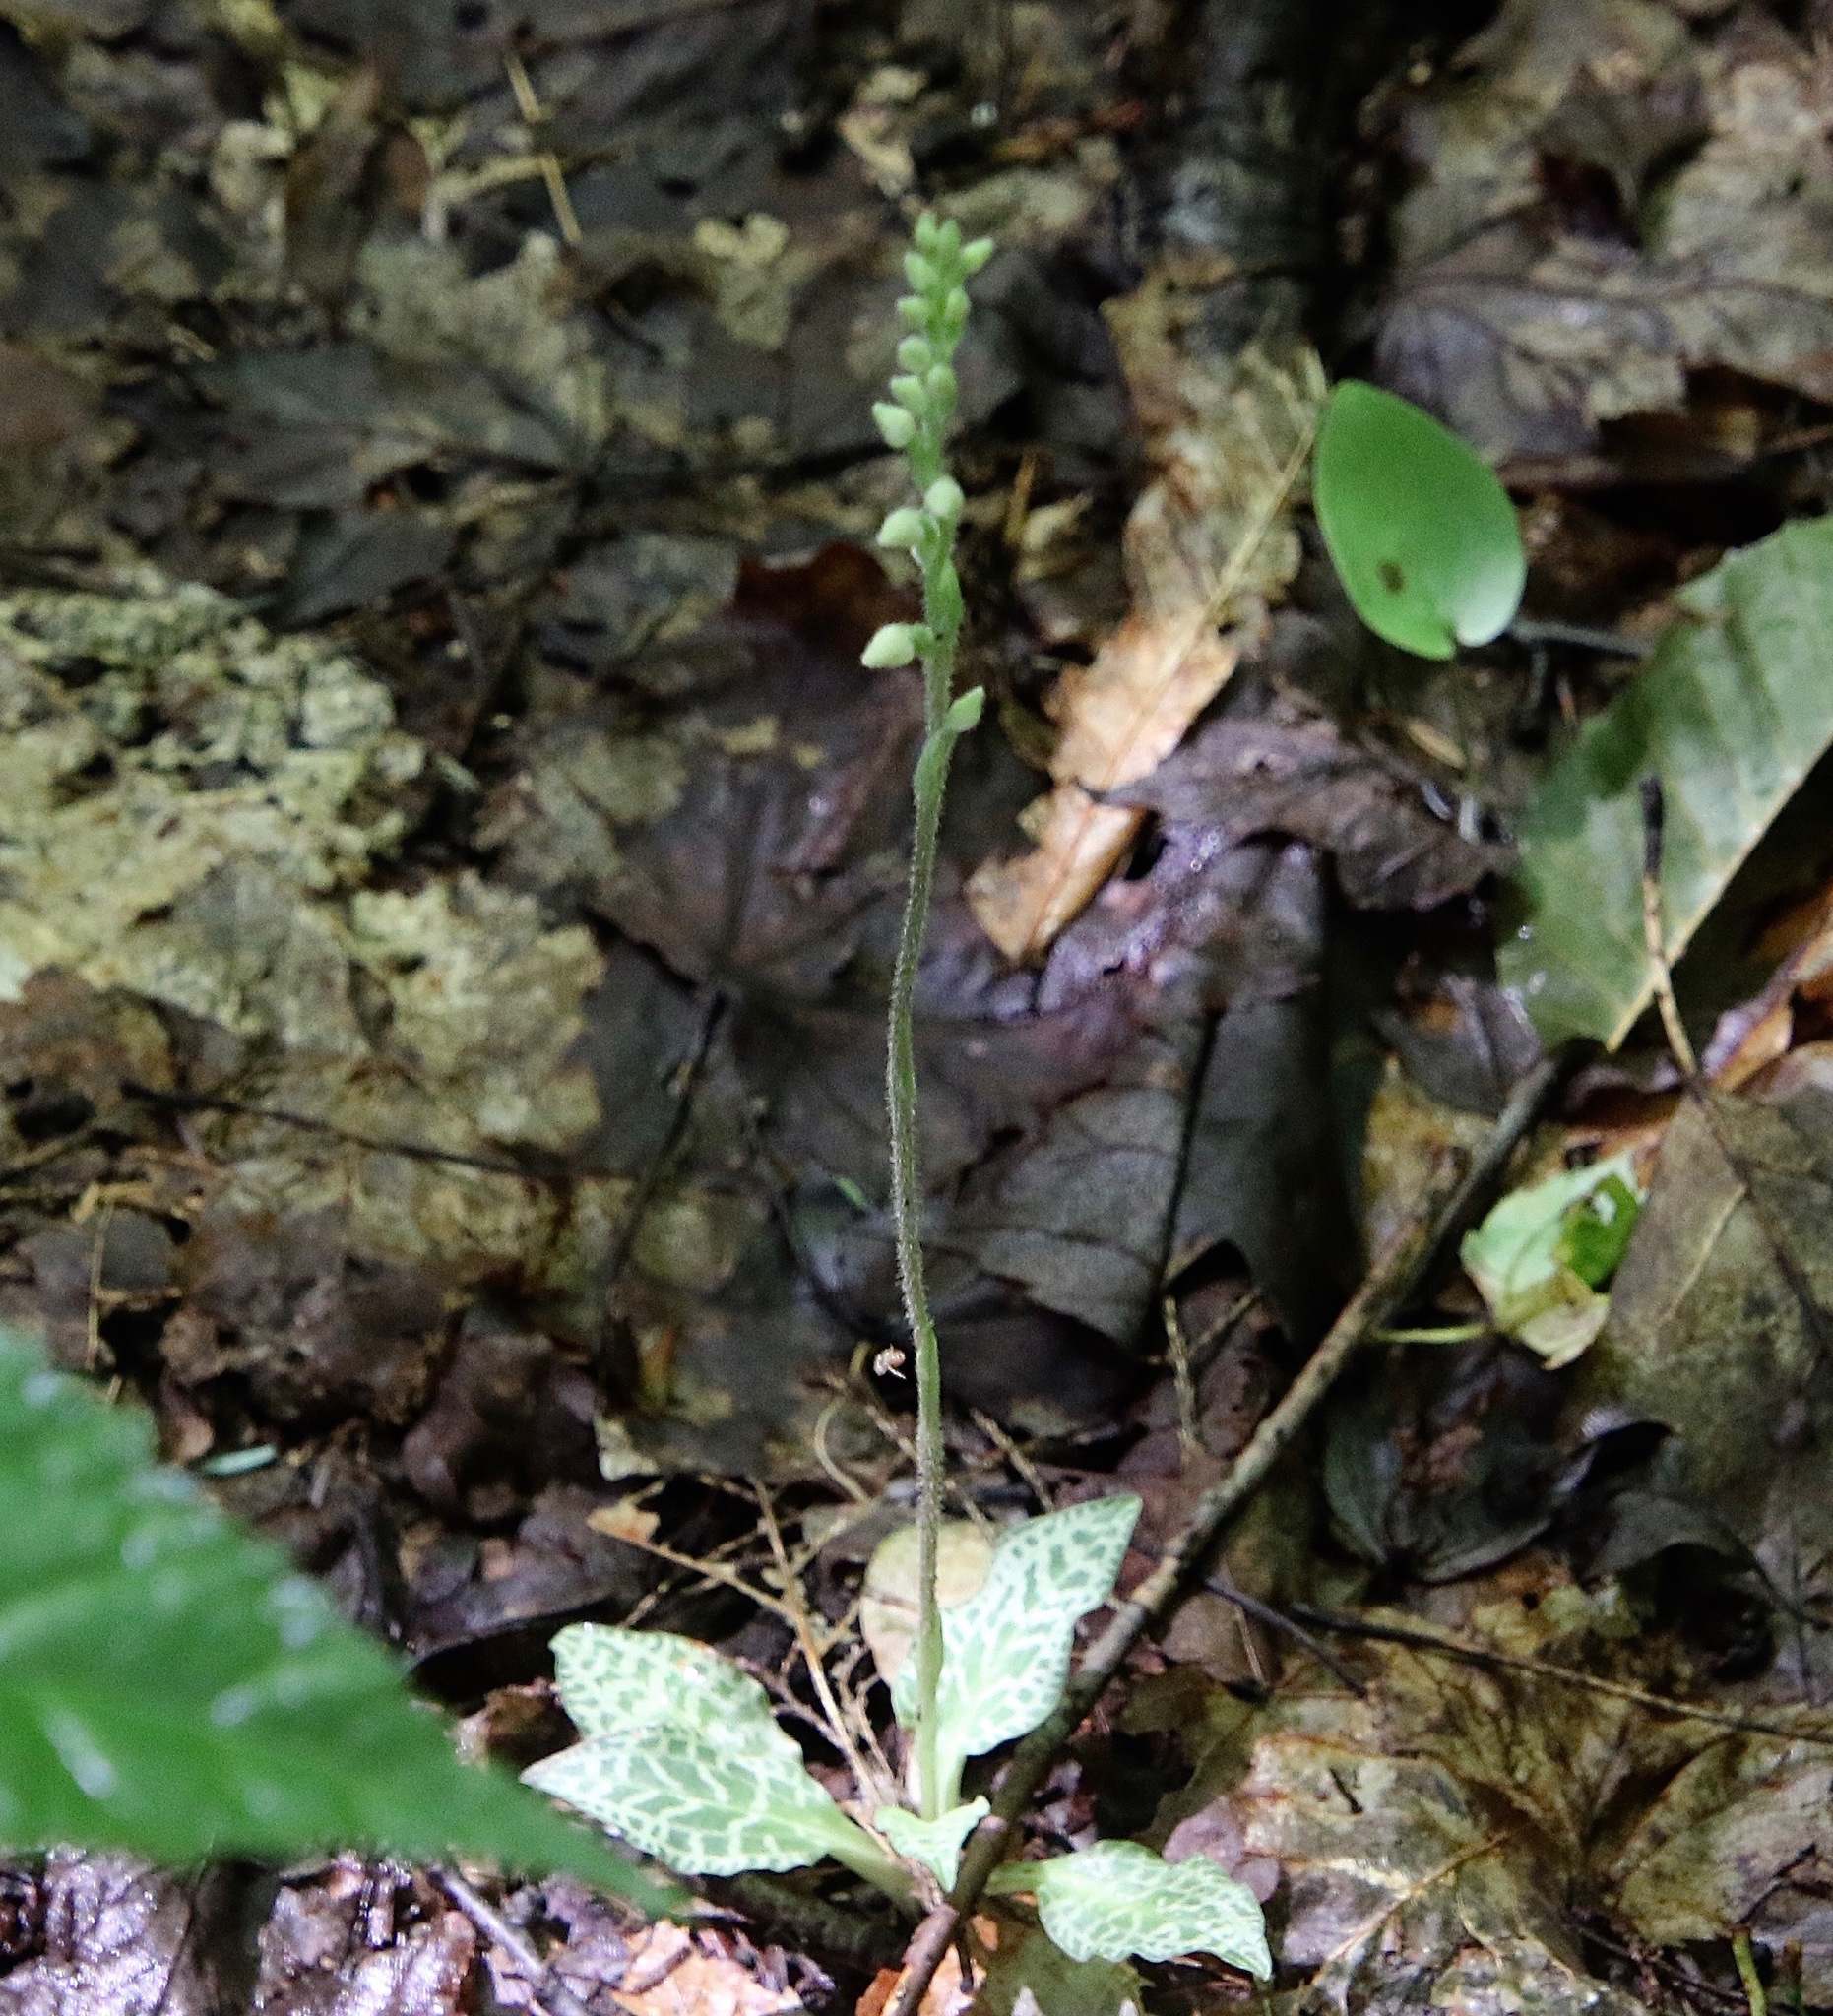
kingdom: Plantae
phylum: Tracheophyta
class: Liliopsida
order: Asparagales
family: Orchidaceae
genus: Goodyera
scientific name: Goodyera tesselata
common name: Checkered rattlesnake-plantain
